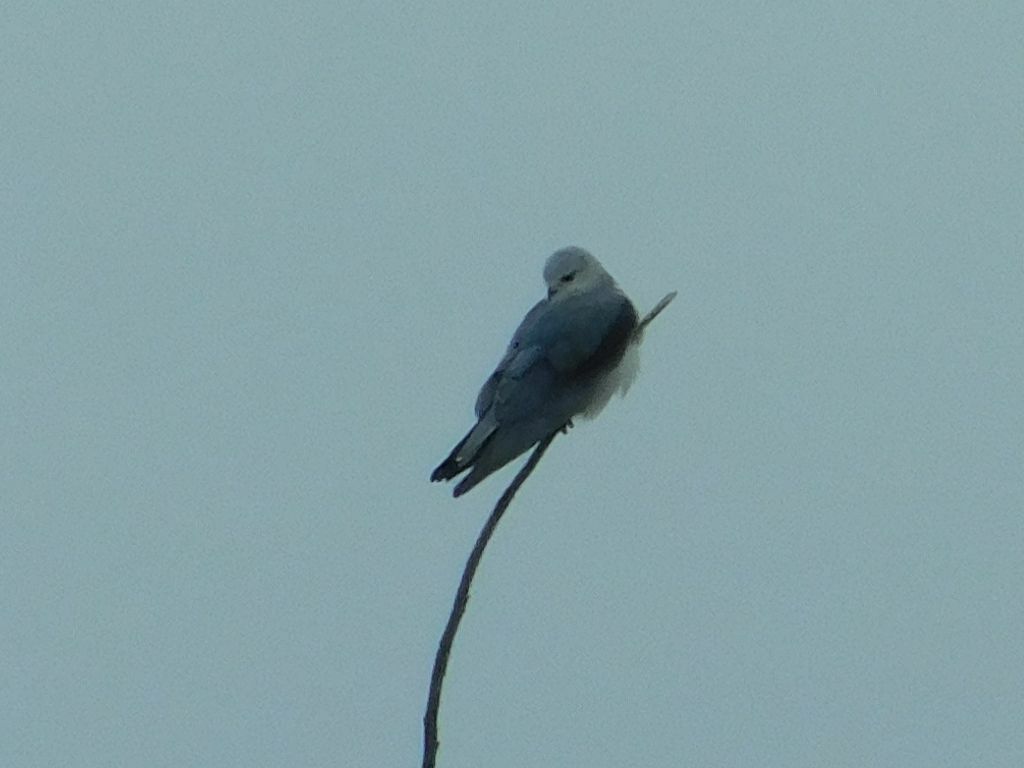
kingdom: Animalia
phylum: Chordata
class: Aves
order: Accipitriformes
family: Accipitridae
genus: Elanus
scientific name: Elanus caeruleus
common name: Black-winged kite
